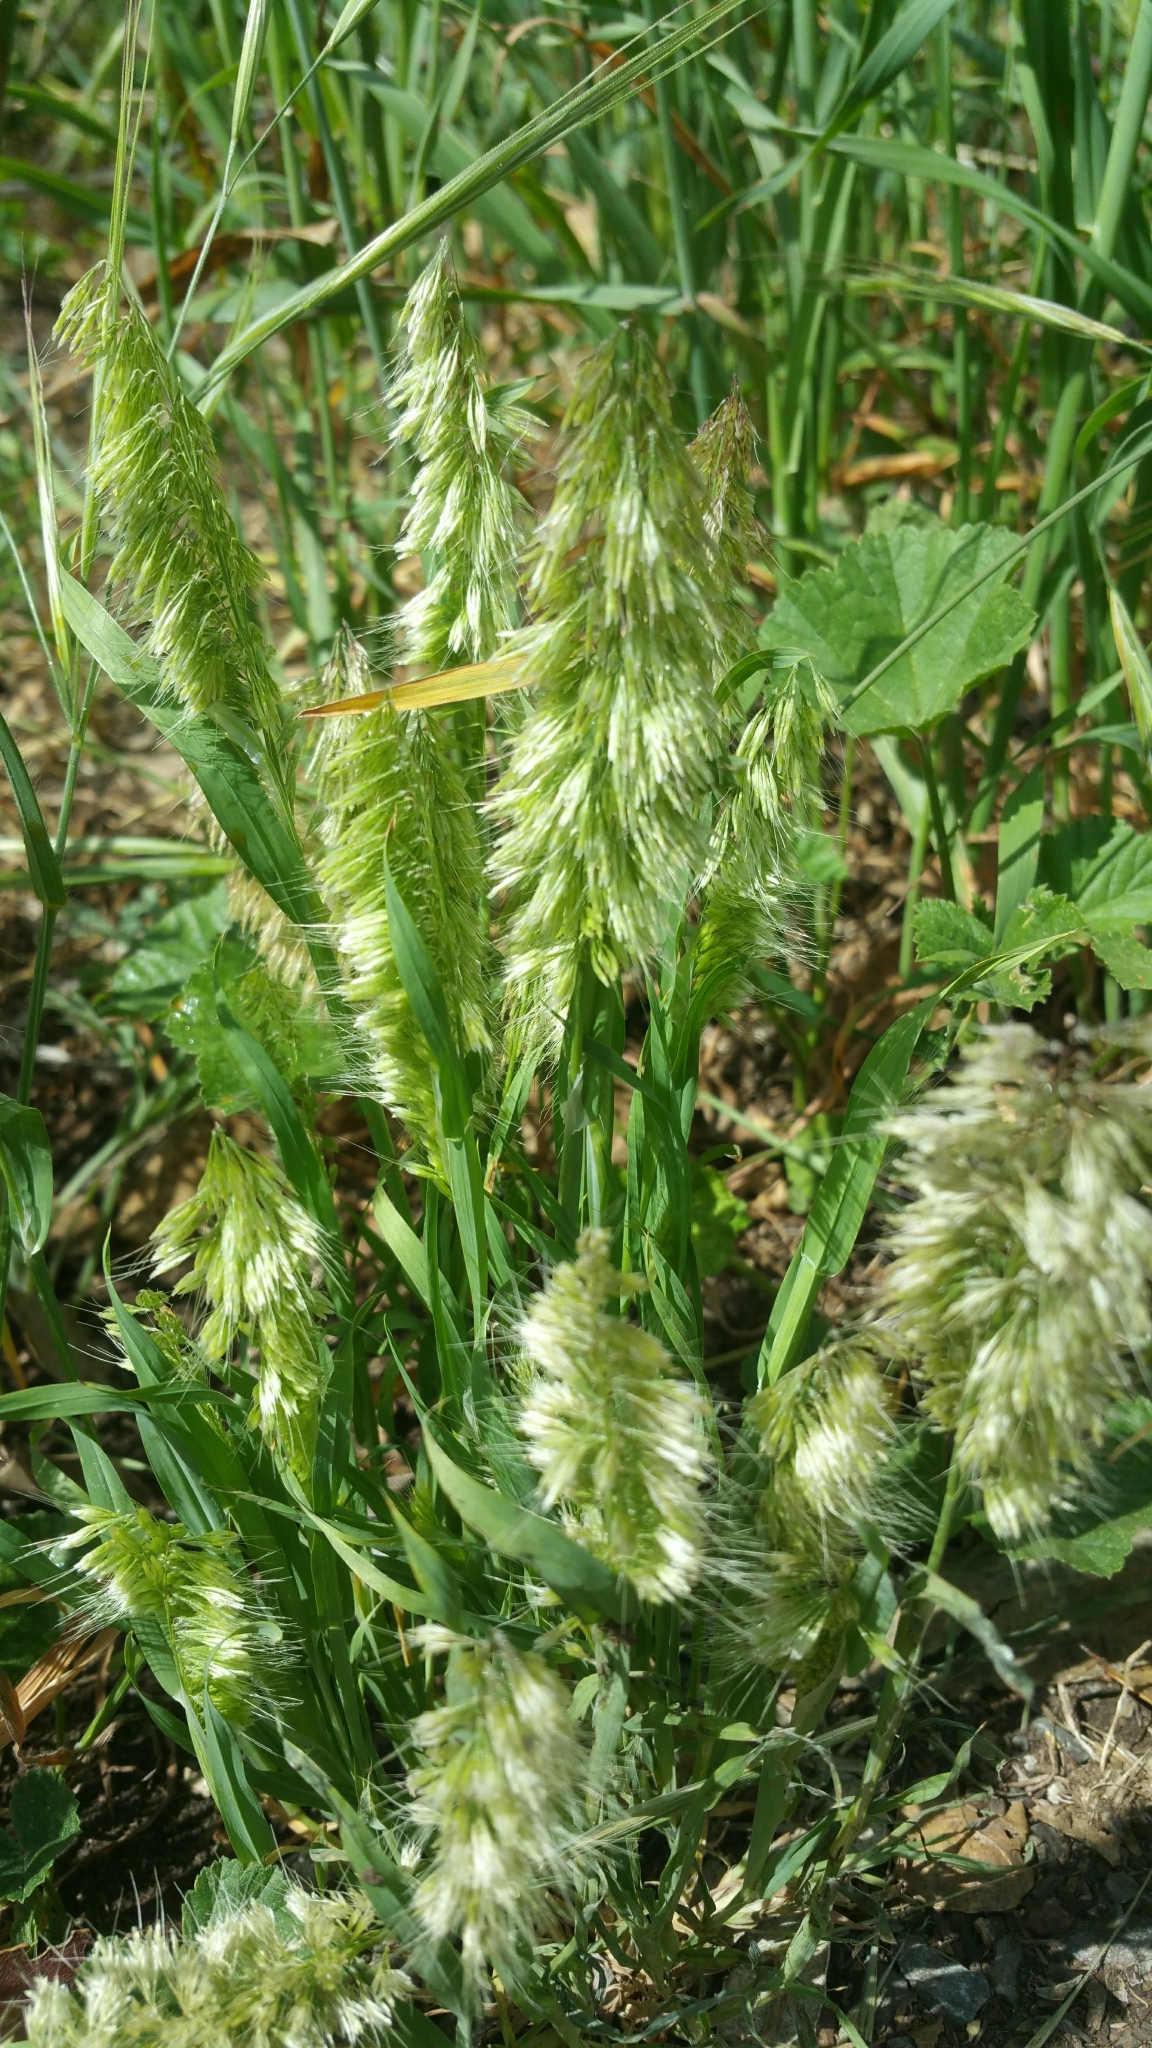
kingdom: Plantae
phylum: Tracheophyta
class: Liliopsida
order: Poales
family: Poaceae
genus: Lamarckia
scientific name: Lamarckia aurea
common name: Golden dog's-tail
